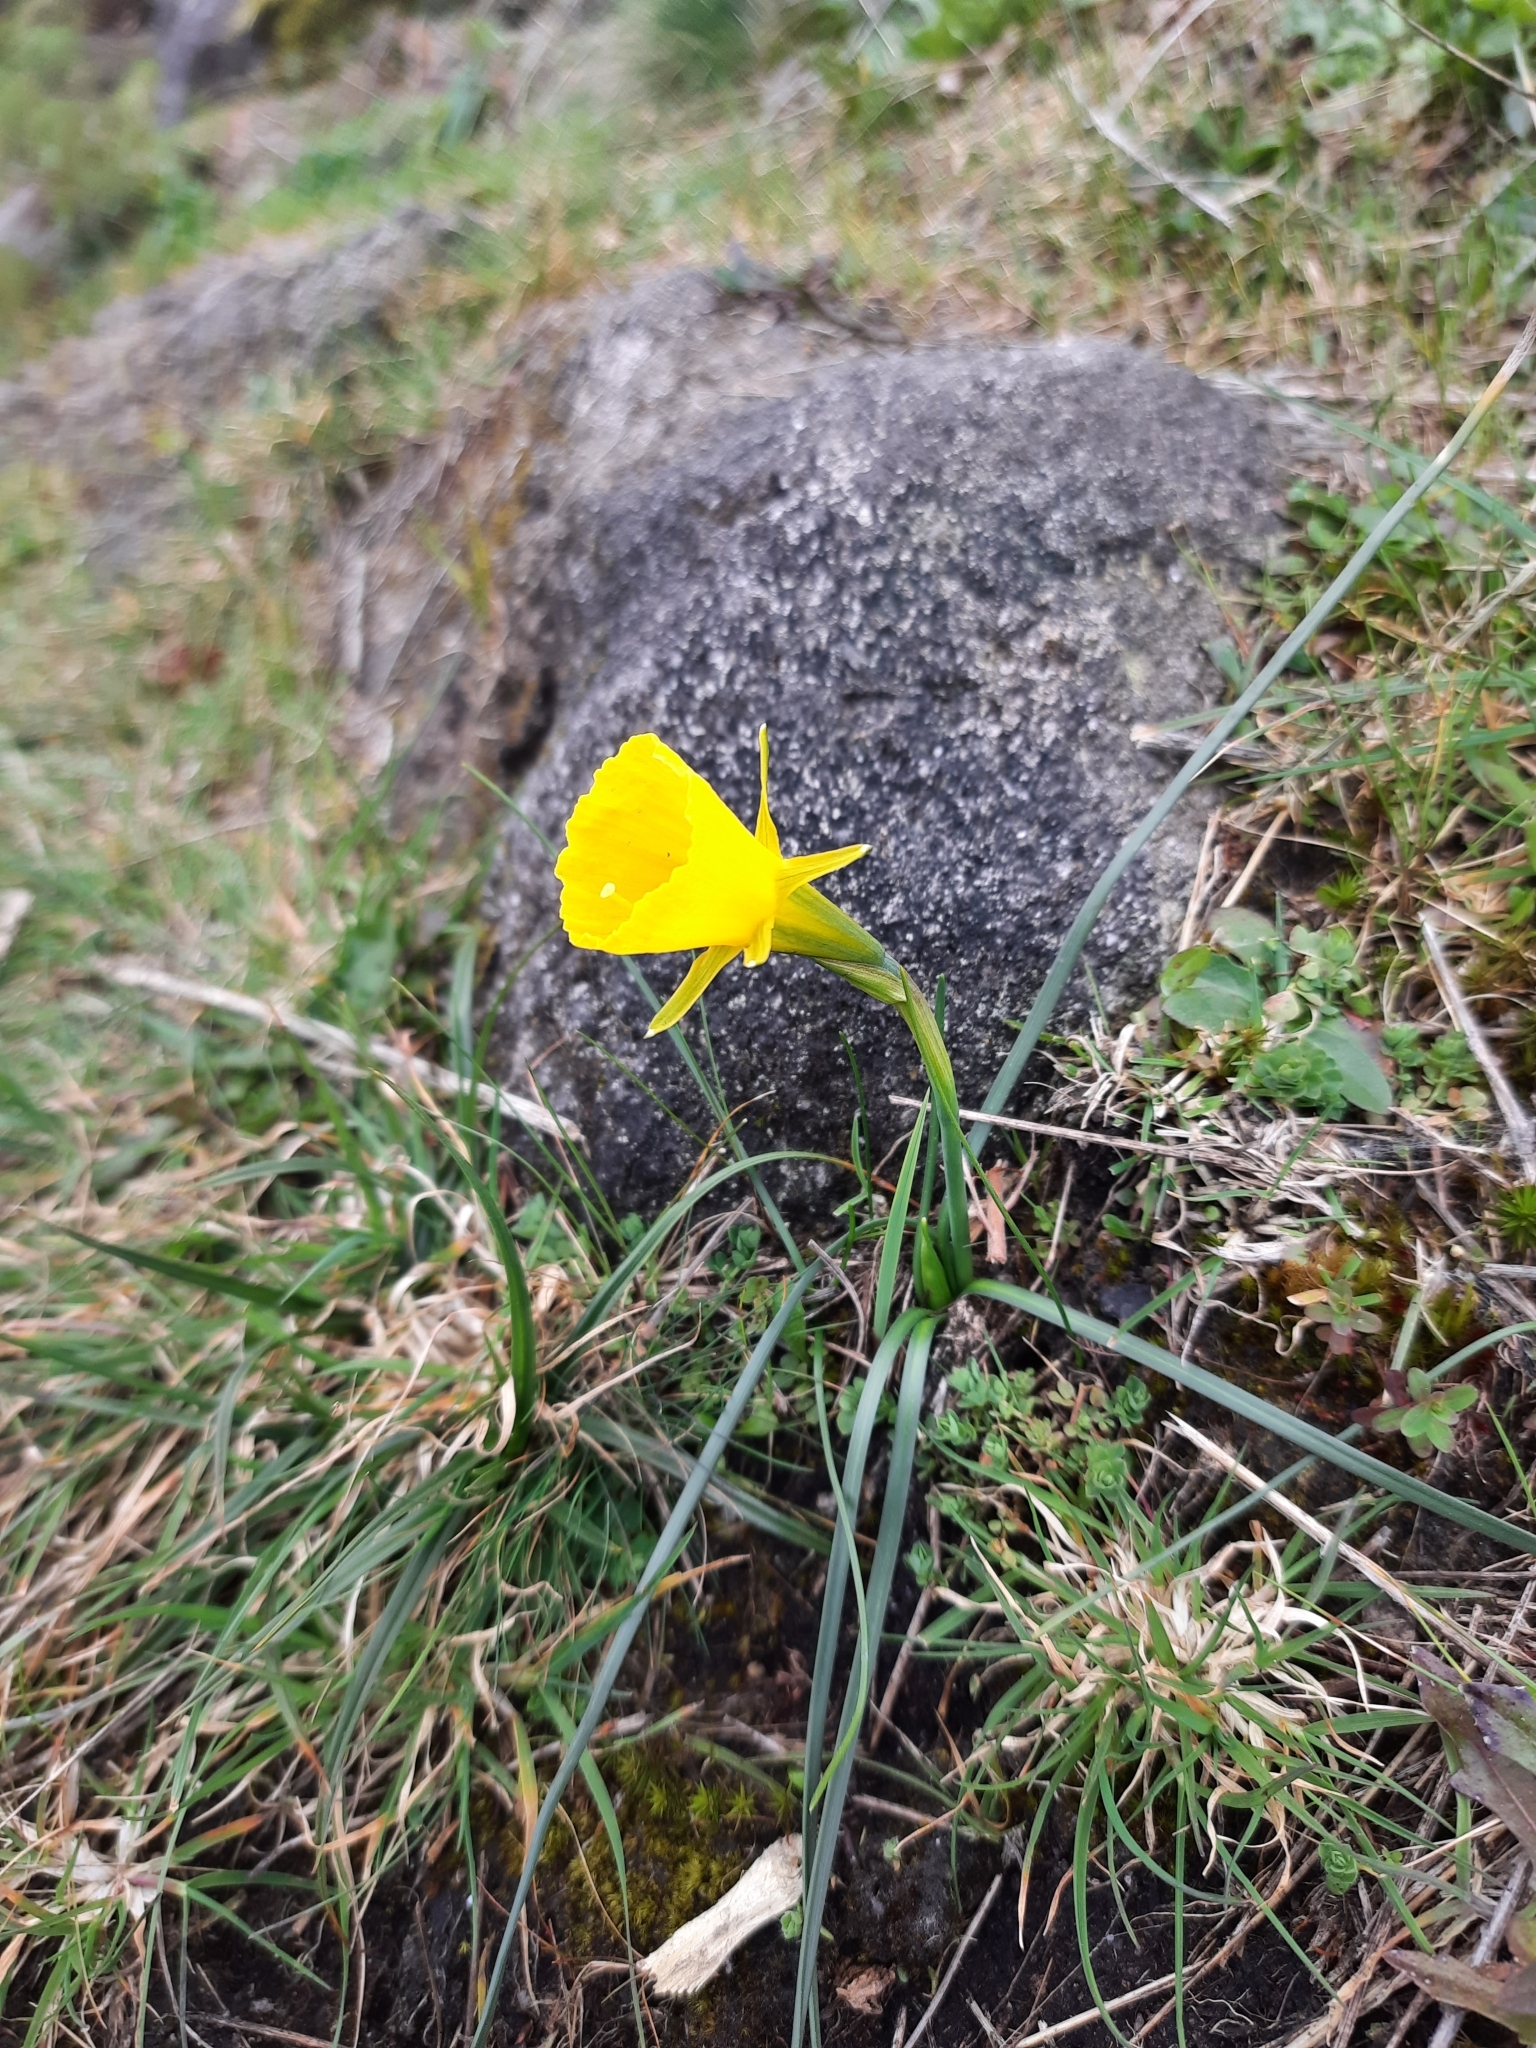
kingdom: Plantae
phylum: Tracheophyta
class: Liliopsida
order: Asparagales
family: Amaryllidaceae
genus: Narcissus
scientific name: Narcissus bulbocodium
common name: Hoop-petticoat daffodil
